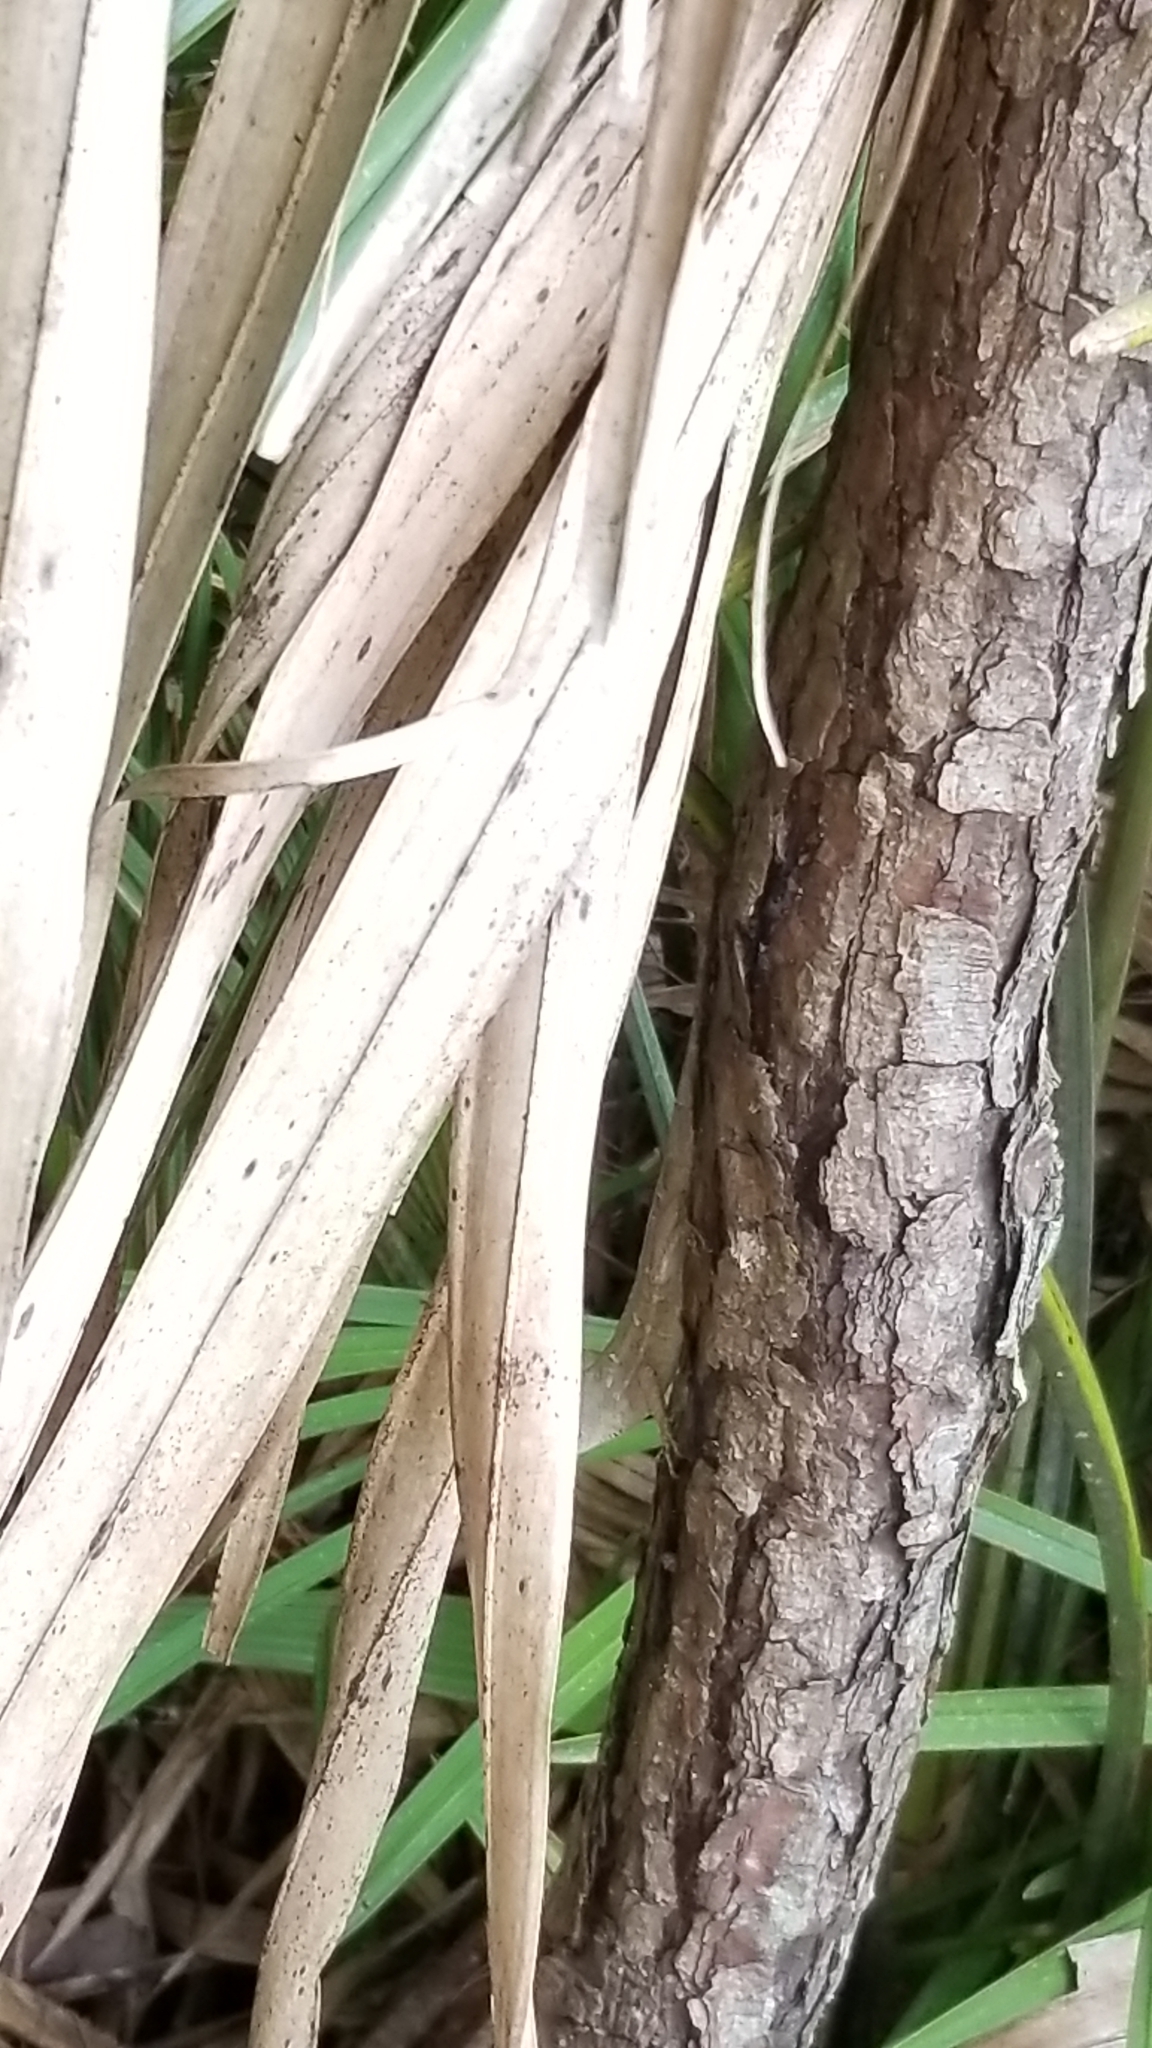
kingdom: Animalia
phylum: Chordata
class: Squamata
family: Dactyloidae
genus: Anolis
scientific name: Anolis sagrei
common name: Brown anole
